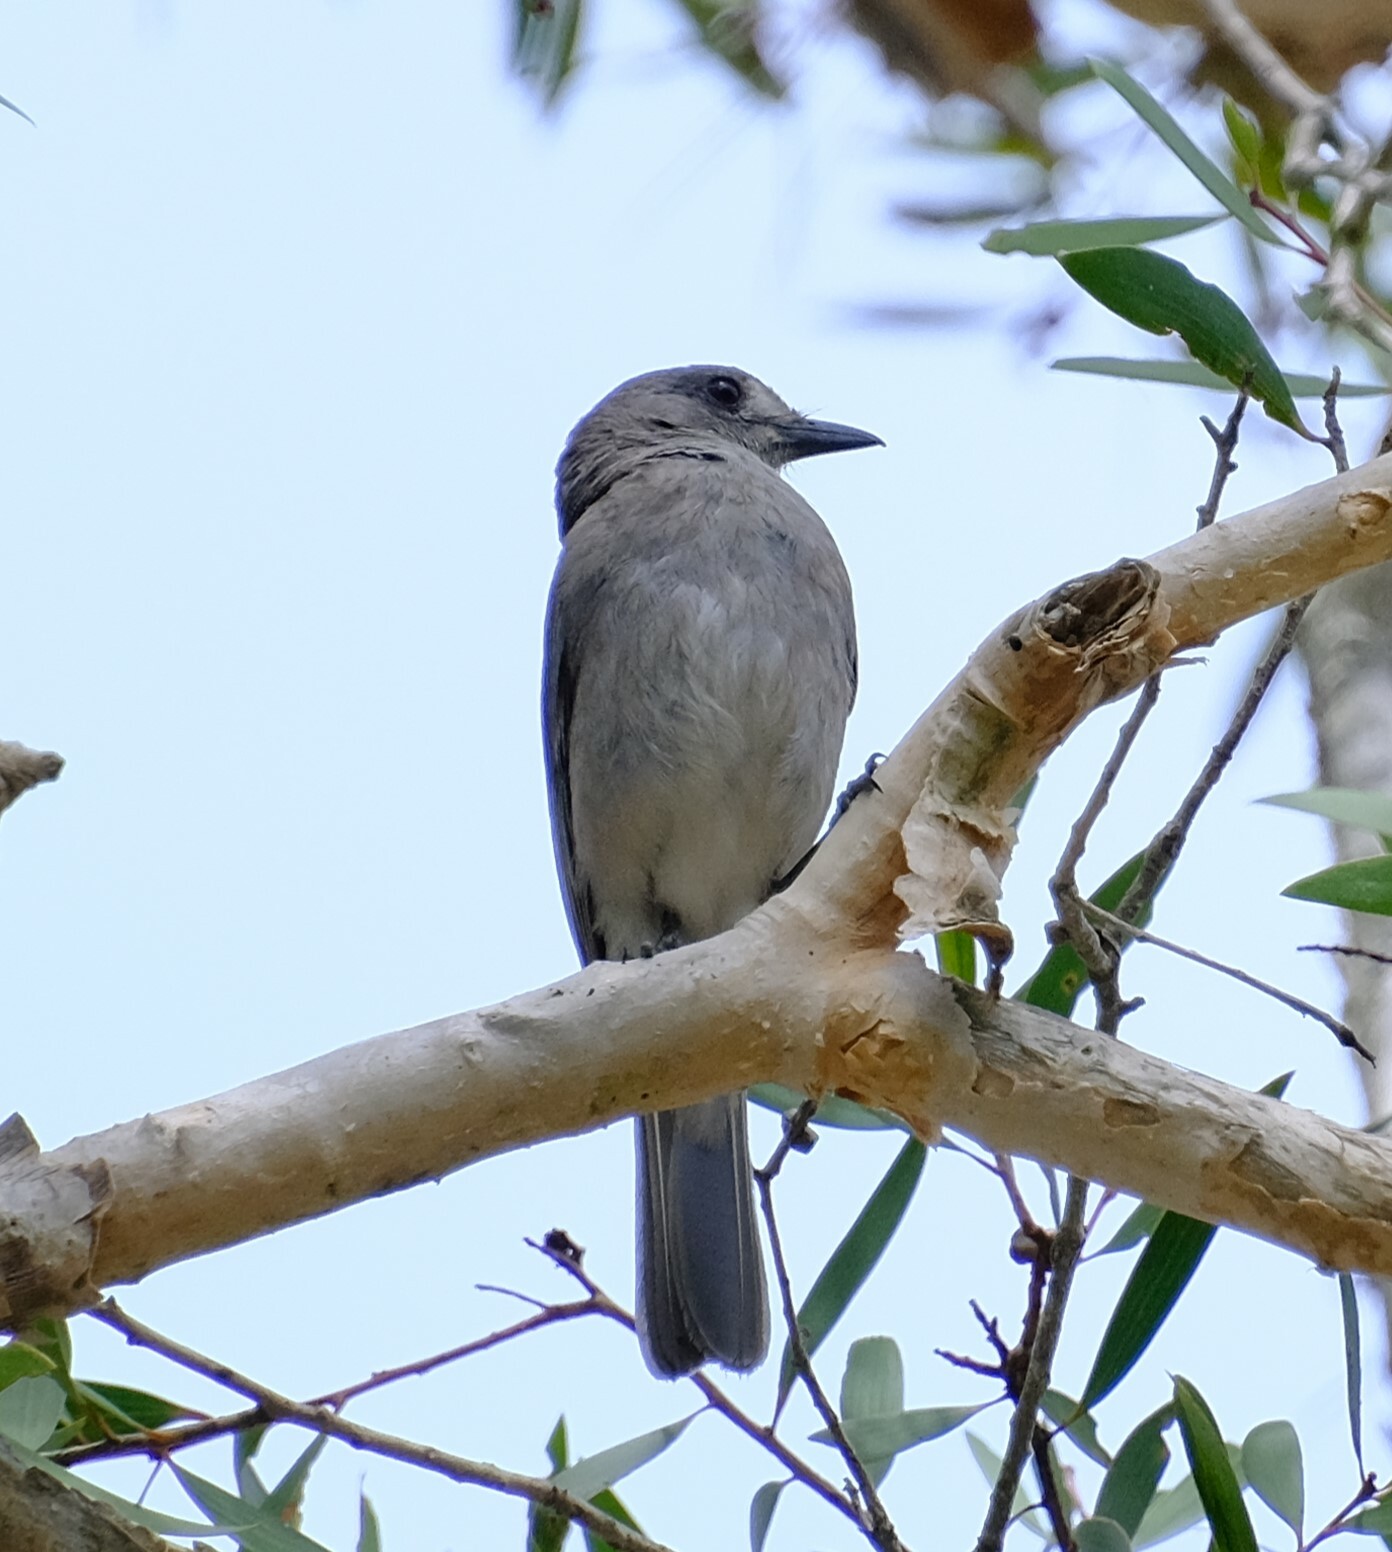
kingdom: Animalia
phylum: Chordata
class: Aves
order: Passeriformes
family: Pachycephalidae
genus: Colluricincla
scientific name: Colluricincla harmonica
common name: Grey shrikethrush
